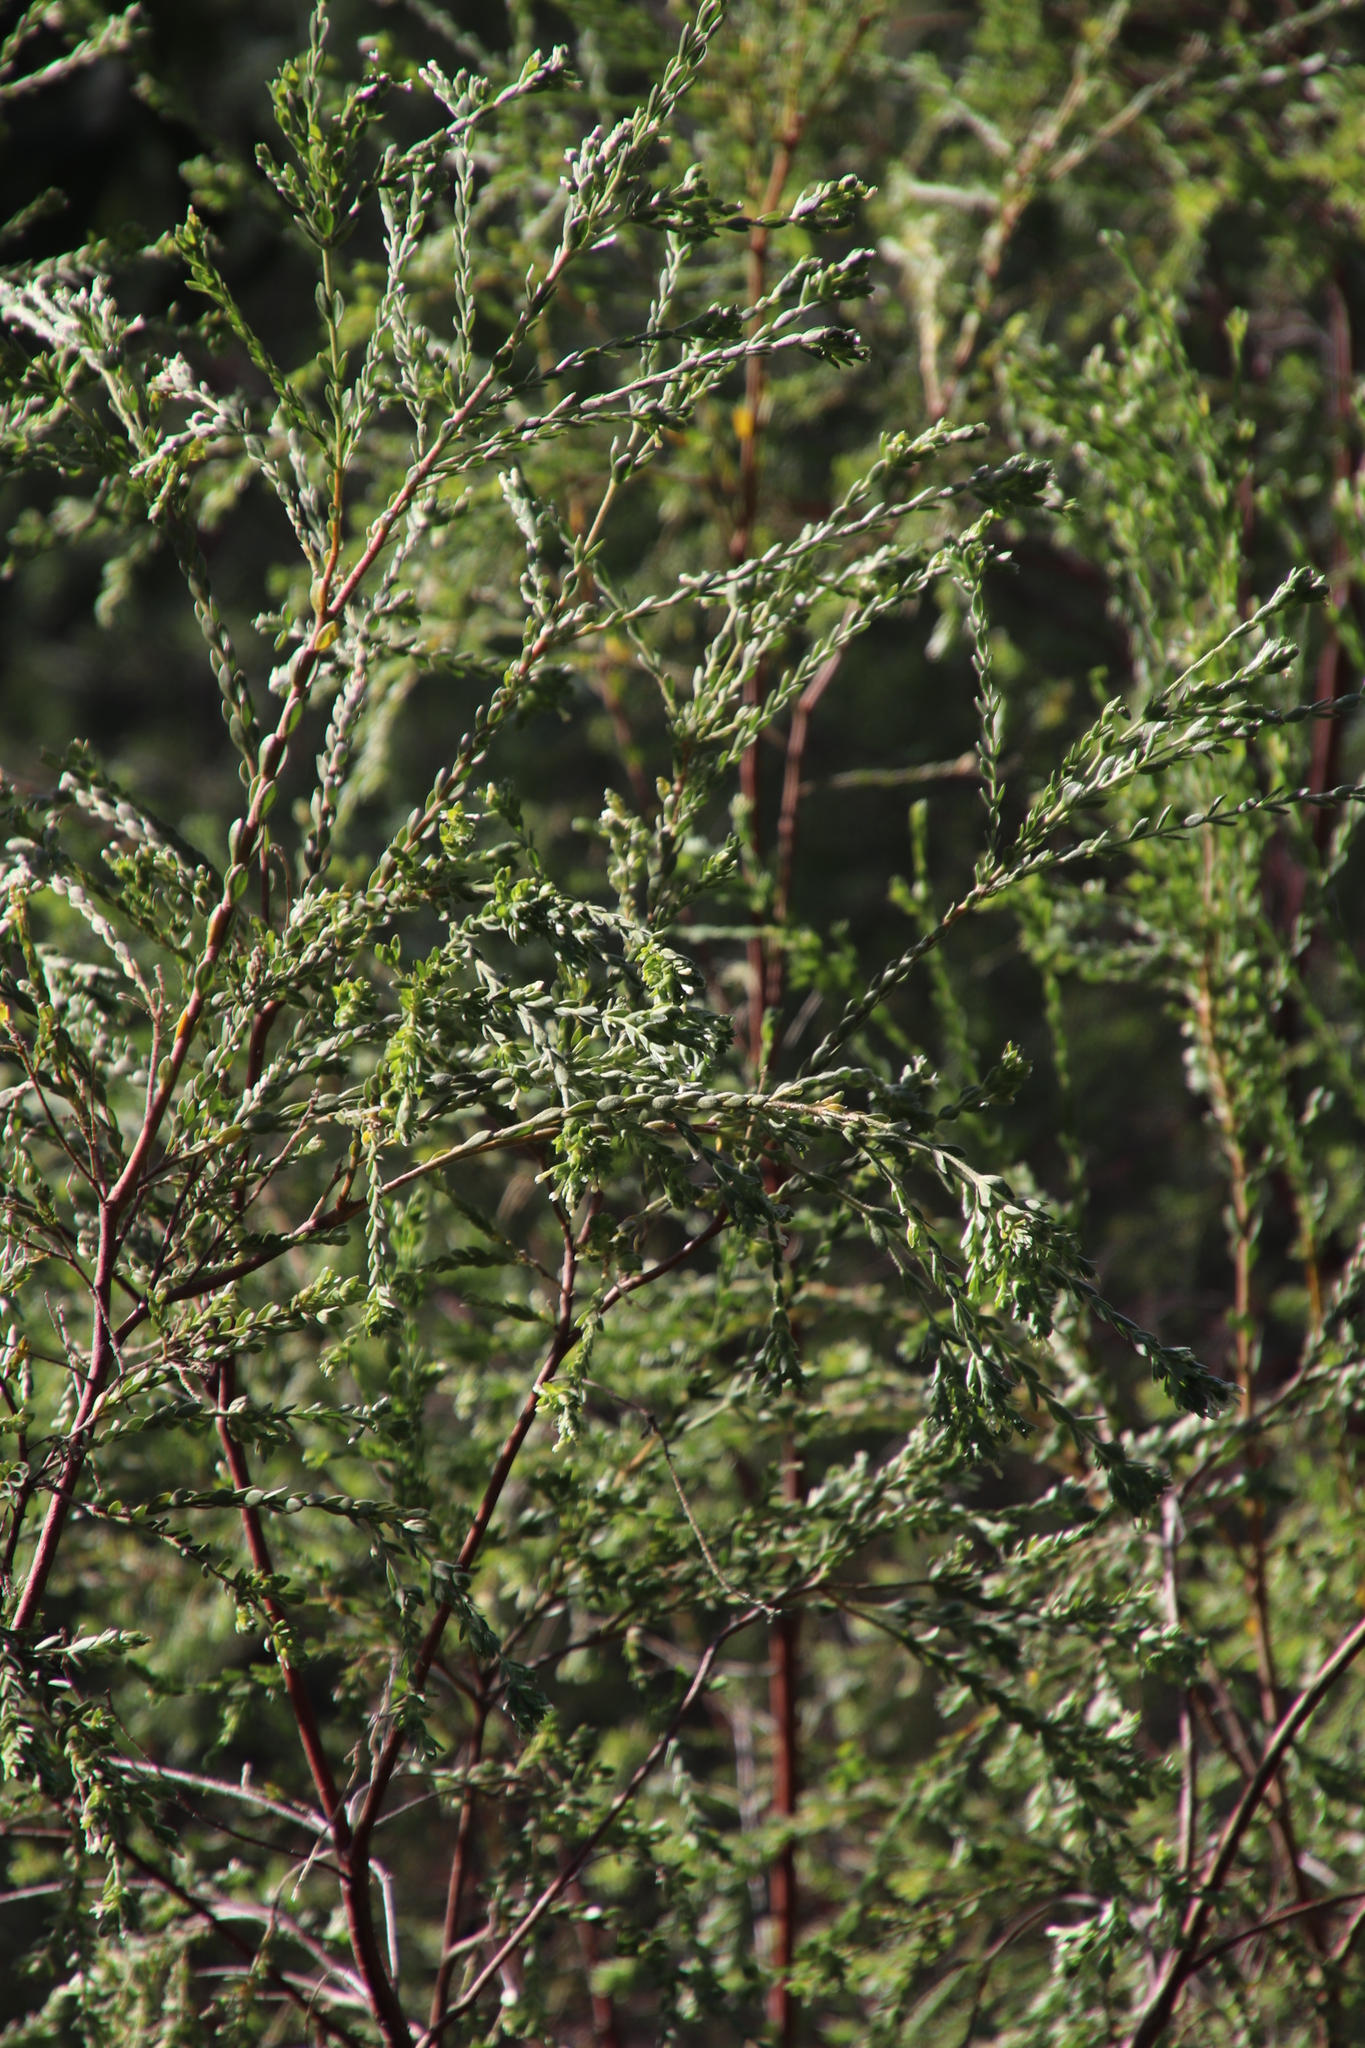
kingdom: Plantae
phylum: Tracheophyta
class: Magnoliopsida
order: Malvales
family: Thymelaeaceae
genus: Gnidia
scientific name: Gnidia sericea
